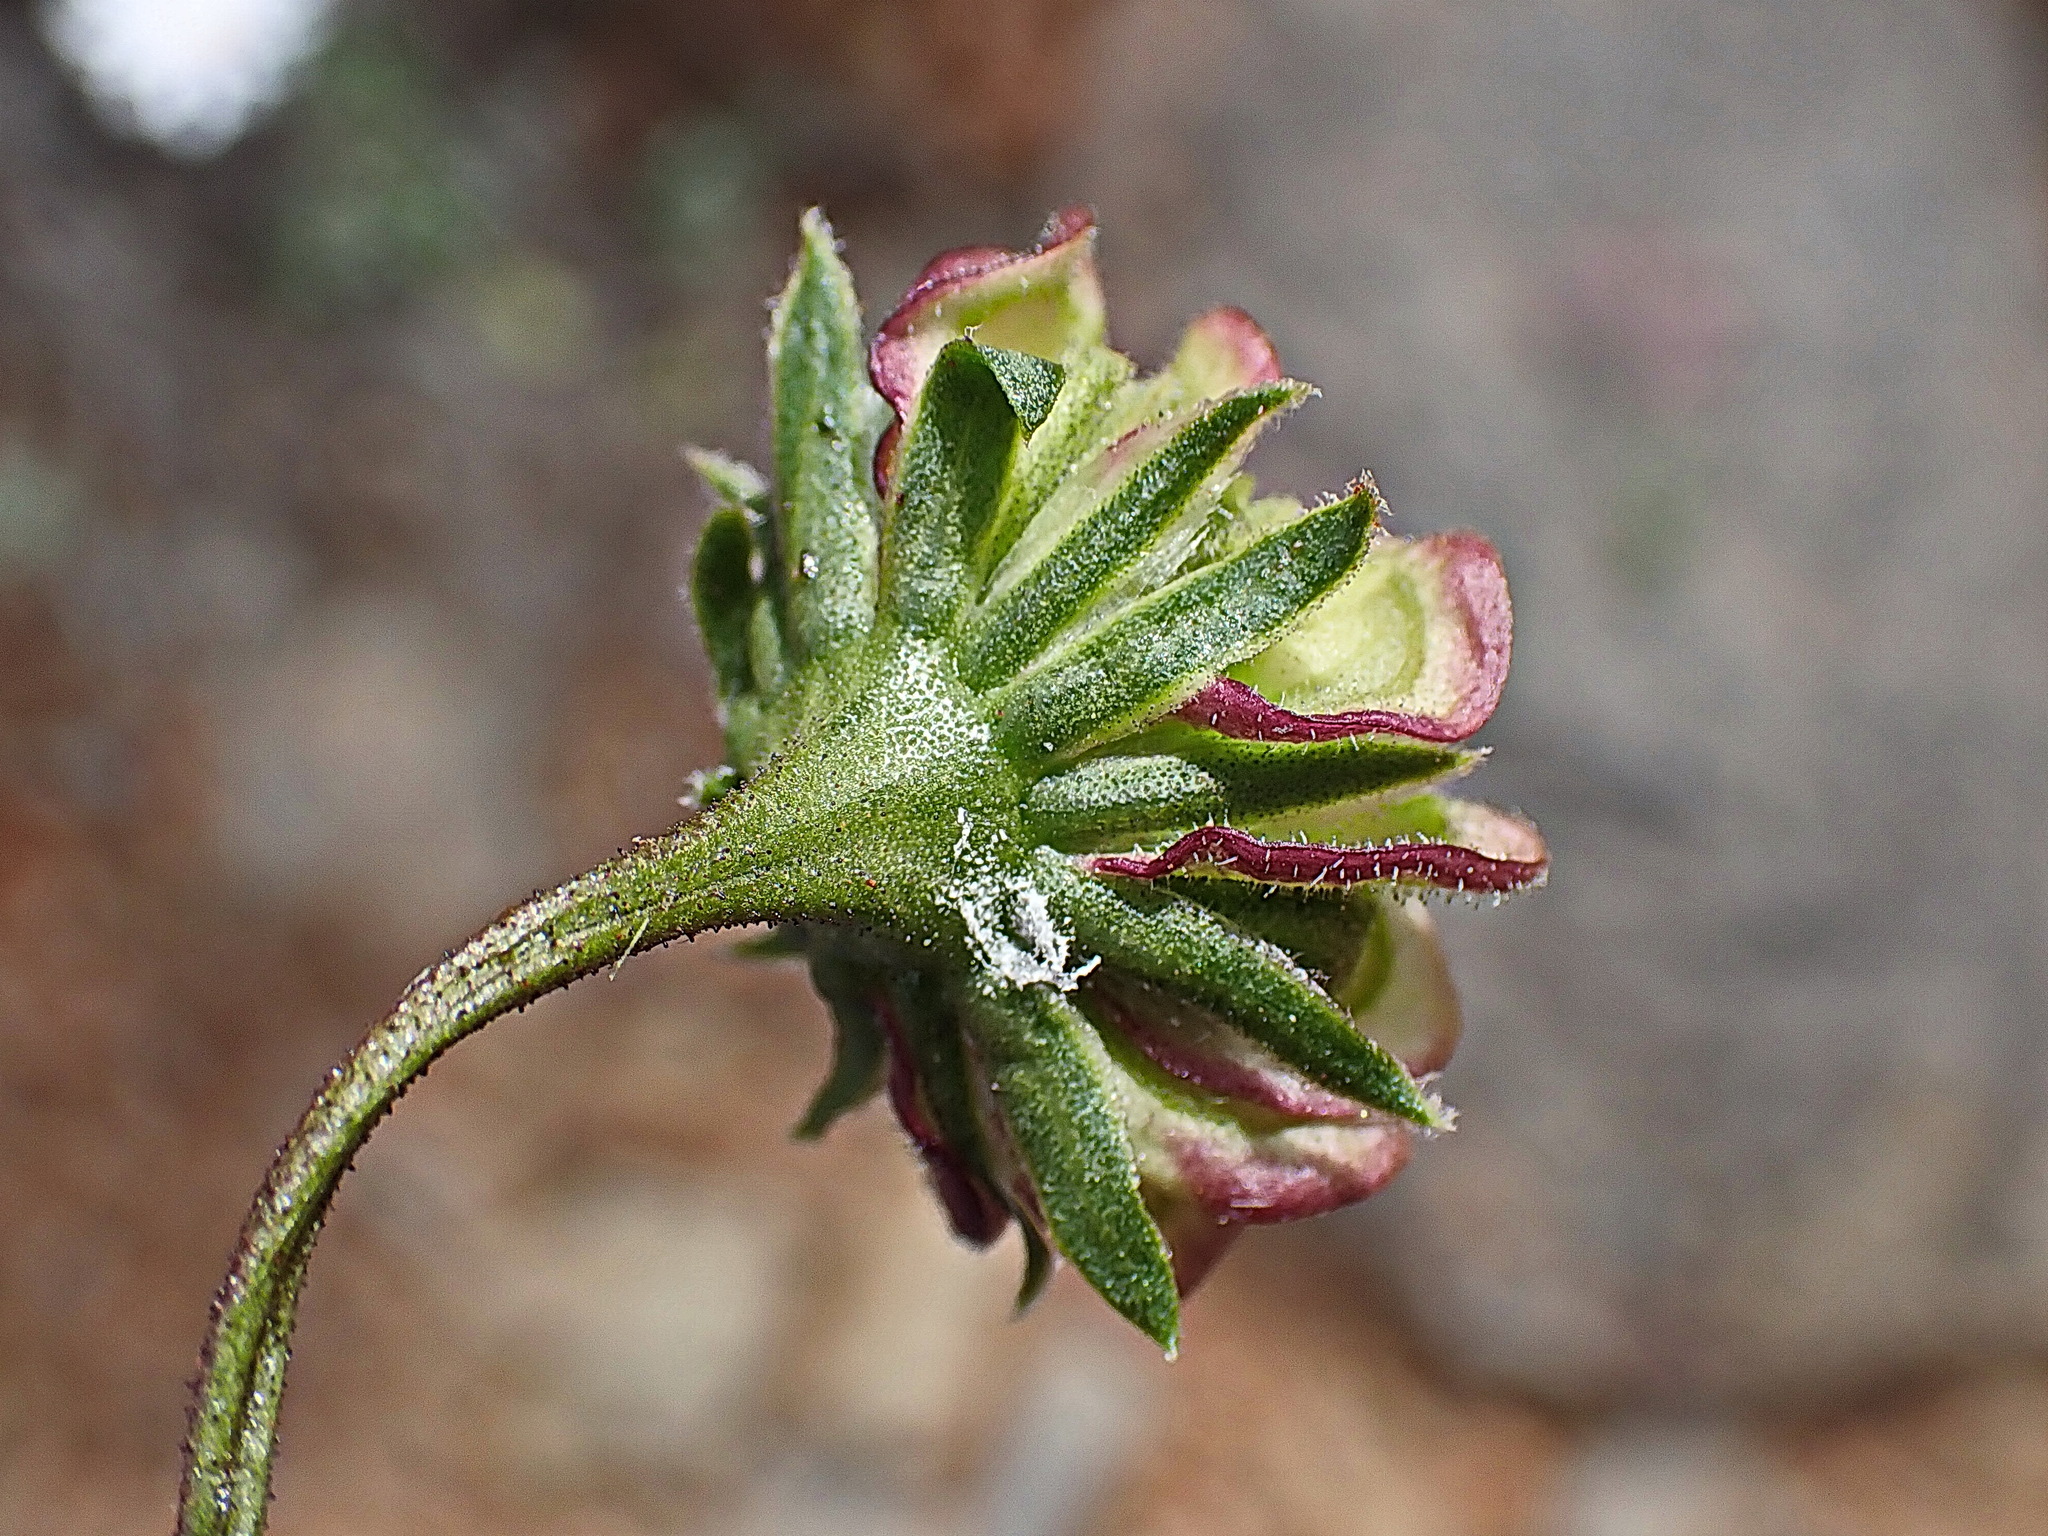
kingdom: Plantae
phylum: Tracheophyta
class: Magnoliopsida
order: Asterales
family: Asteraceae
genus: Dimorphotheca
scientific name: Dimorphotheca cuneata
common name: Daisy
